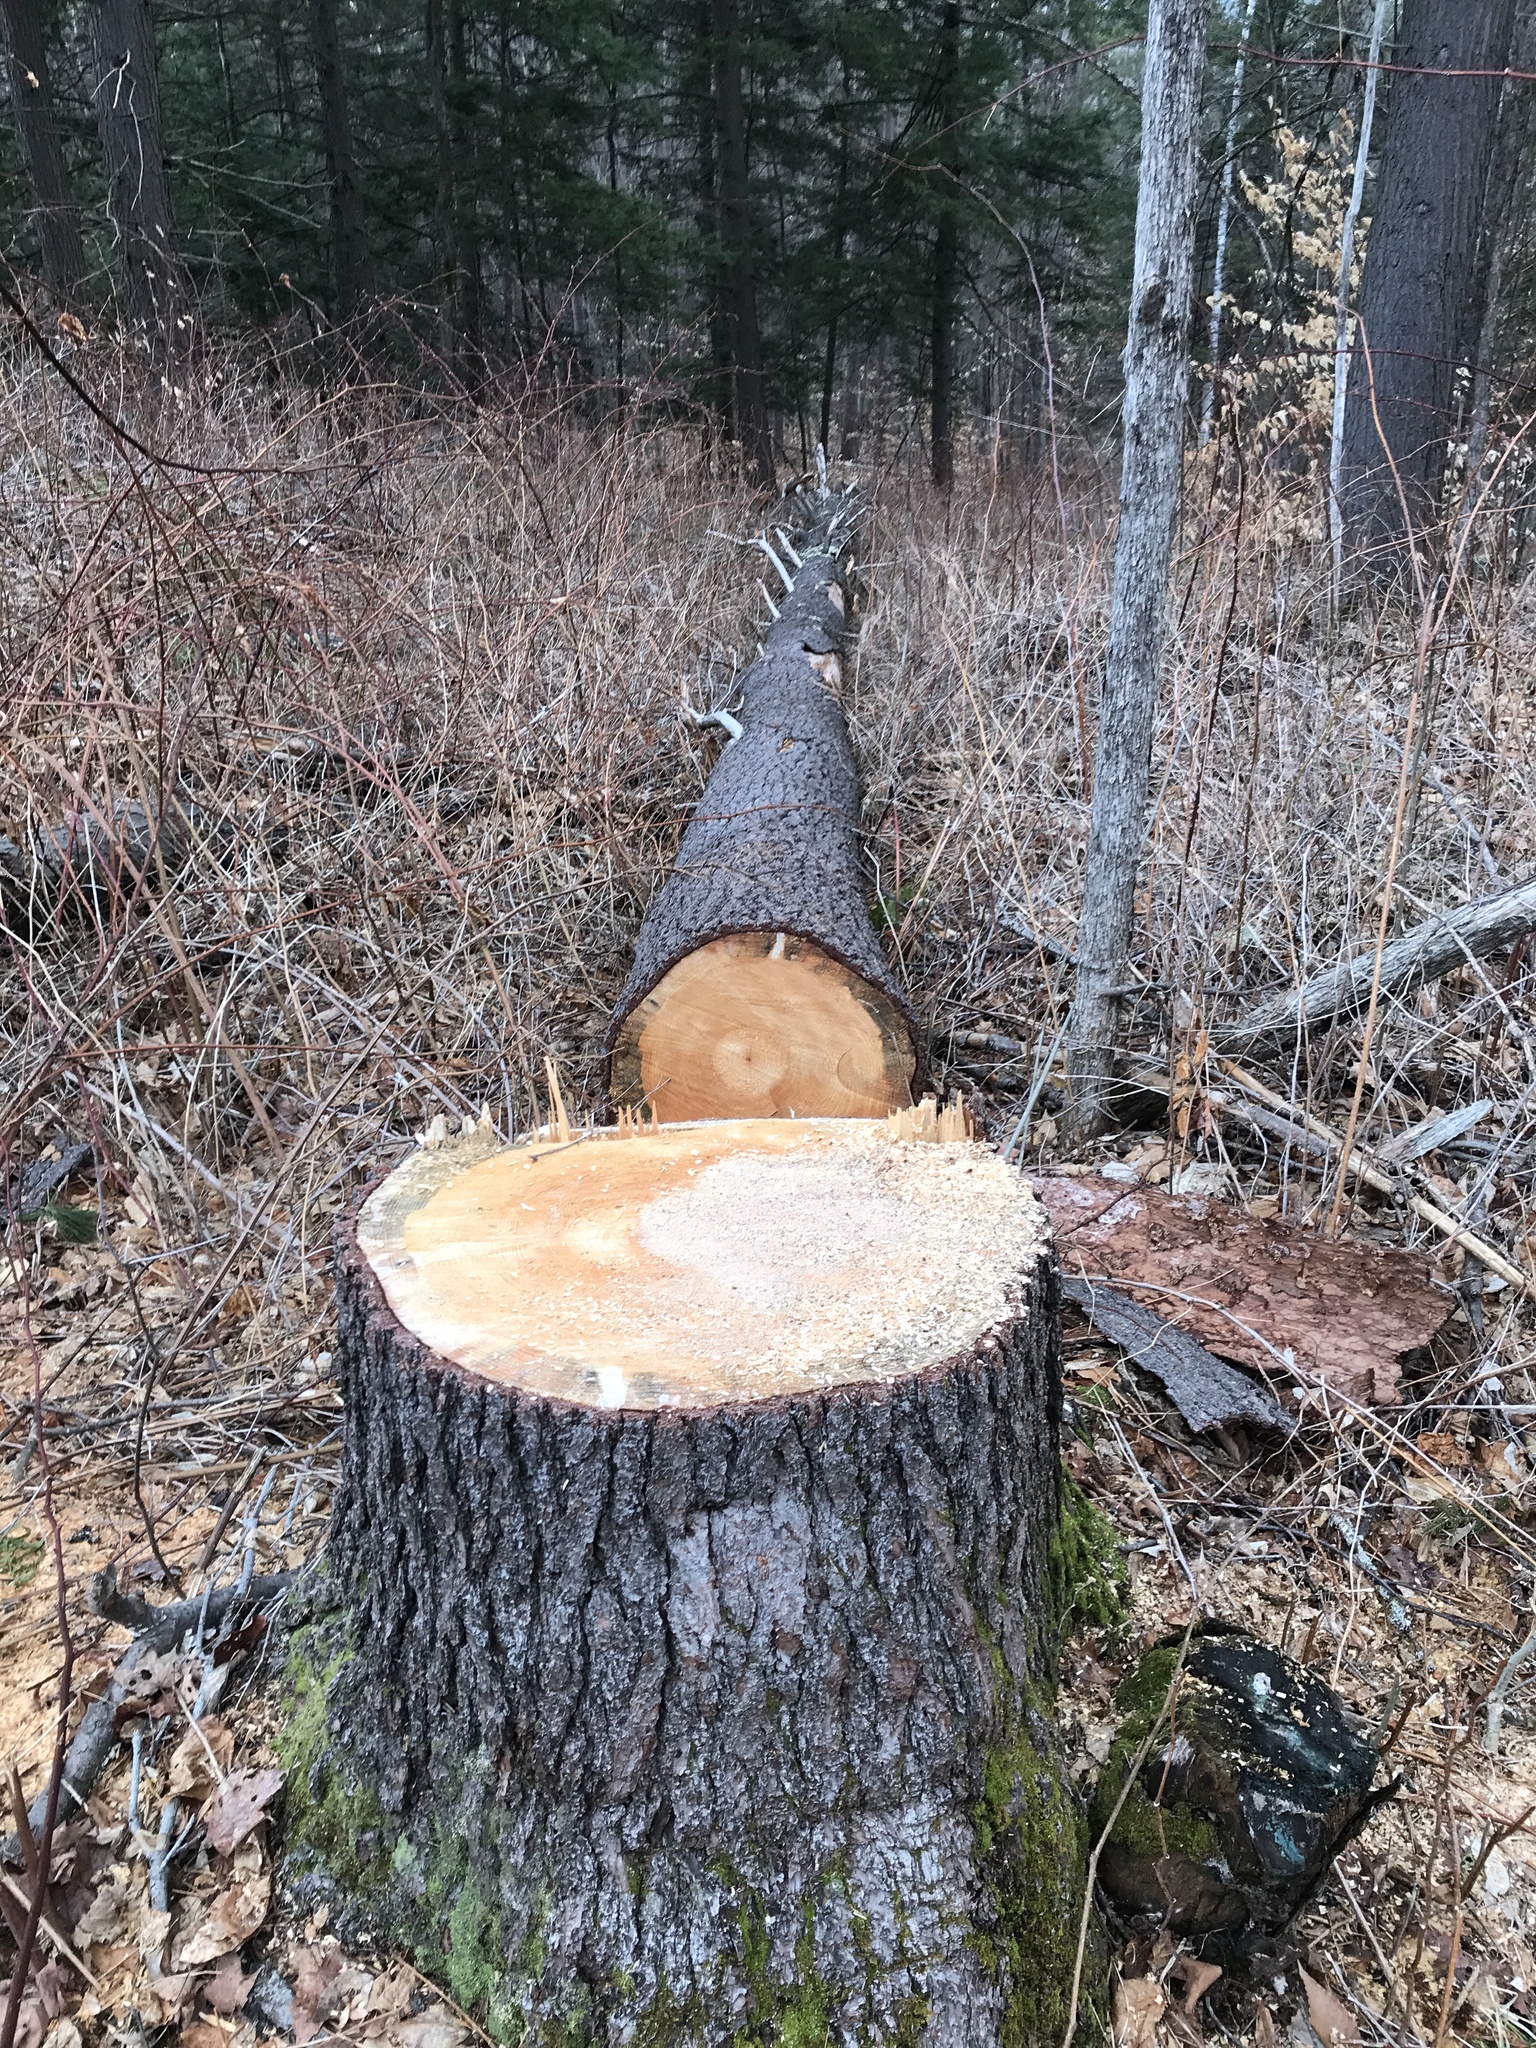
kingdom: Plantae
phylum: Tracheophyta
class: Pinopsida
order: Pinales
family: Pinaceae
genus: Pinus
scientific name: Pinus strobus
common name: Weymouth pine
